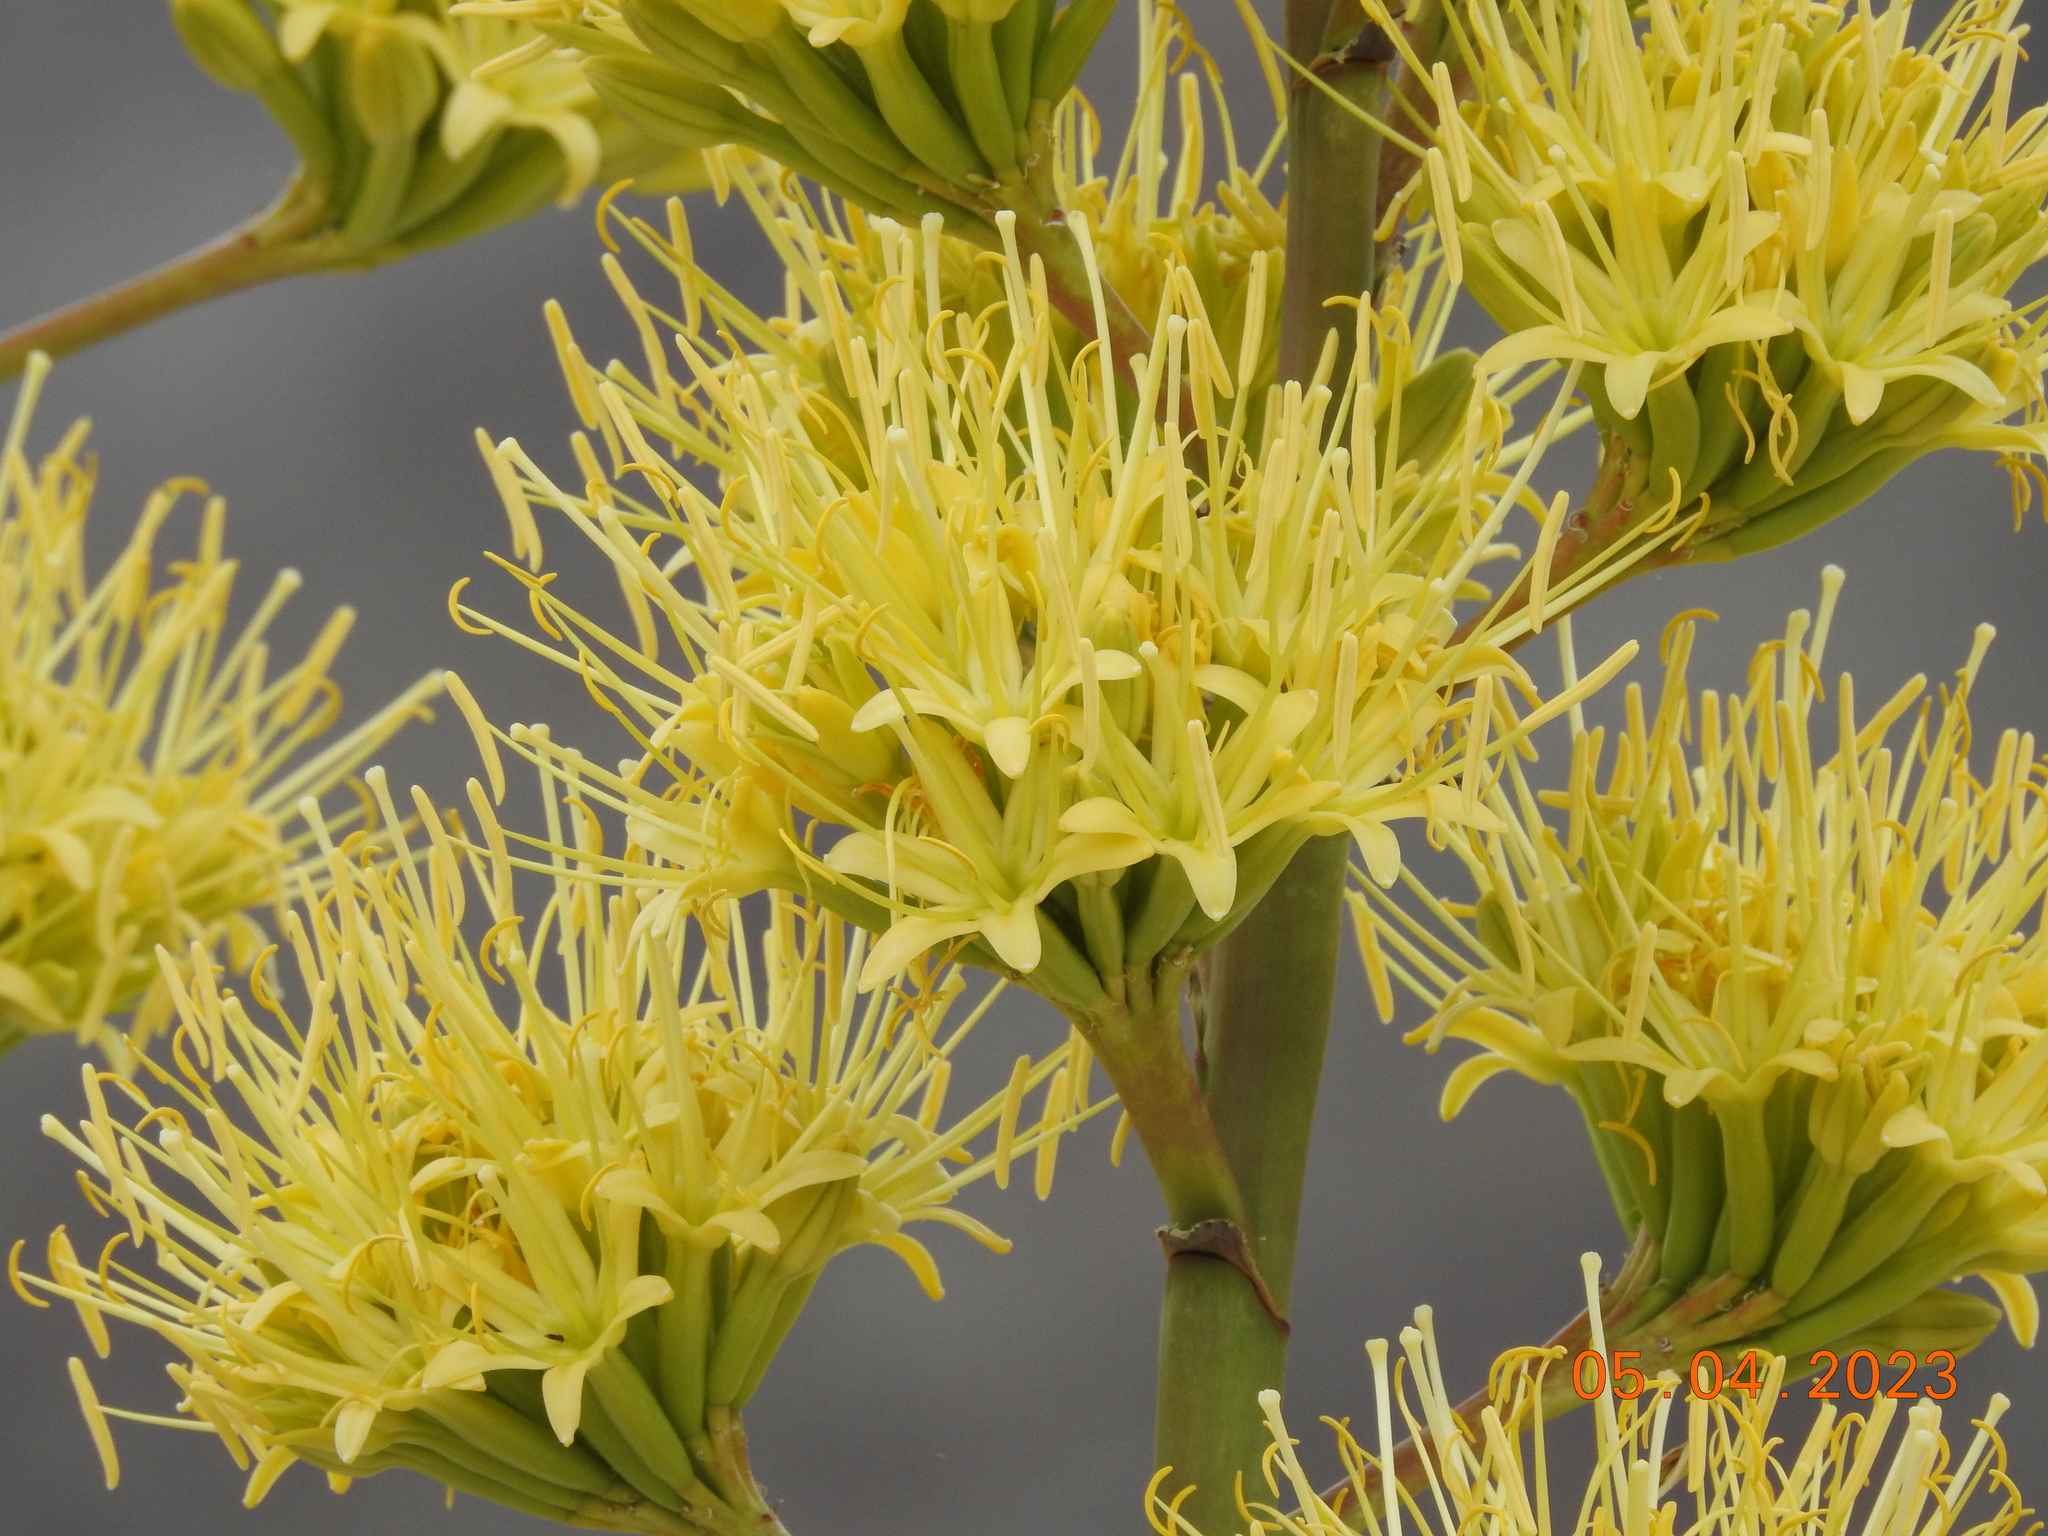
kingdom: Plantae
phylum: Tracheophyta
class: Liliopsida
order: Asparagales
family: Asparagaceae
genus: Agave
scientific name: Agave deserti
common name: Desert agave
